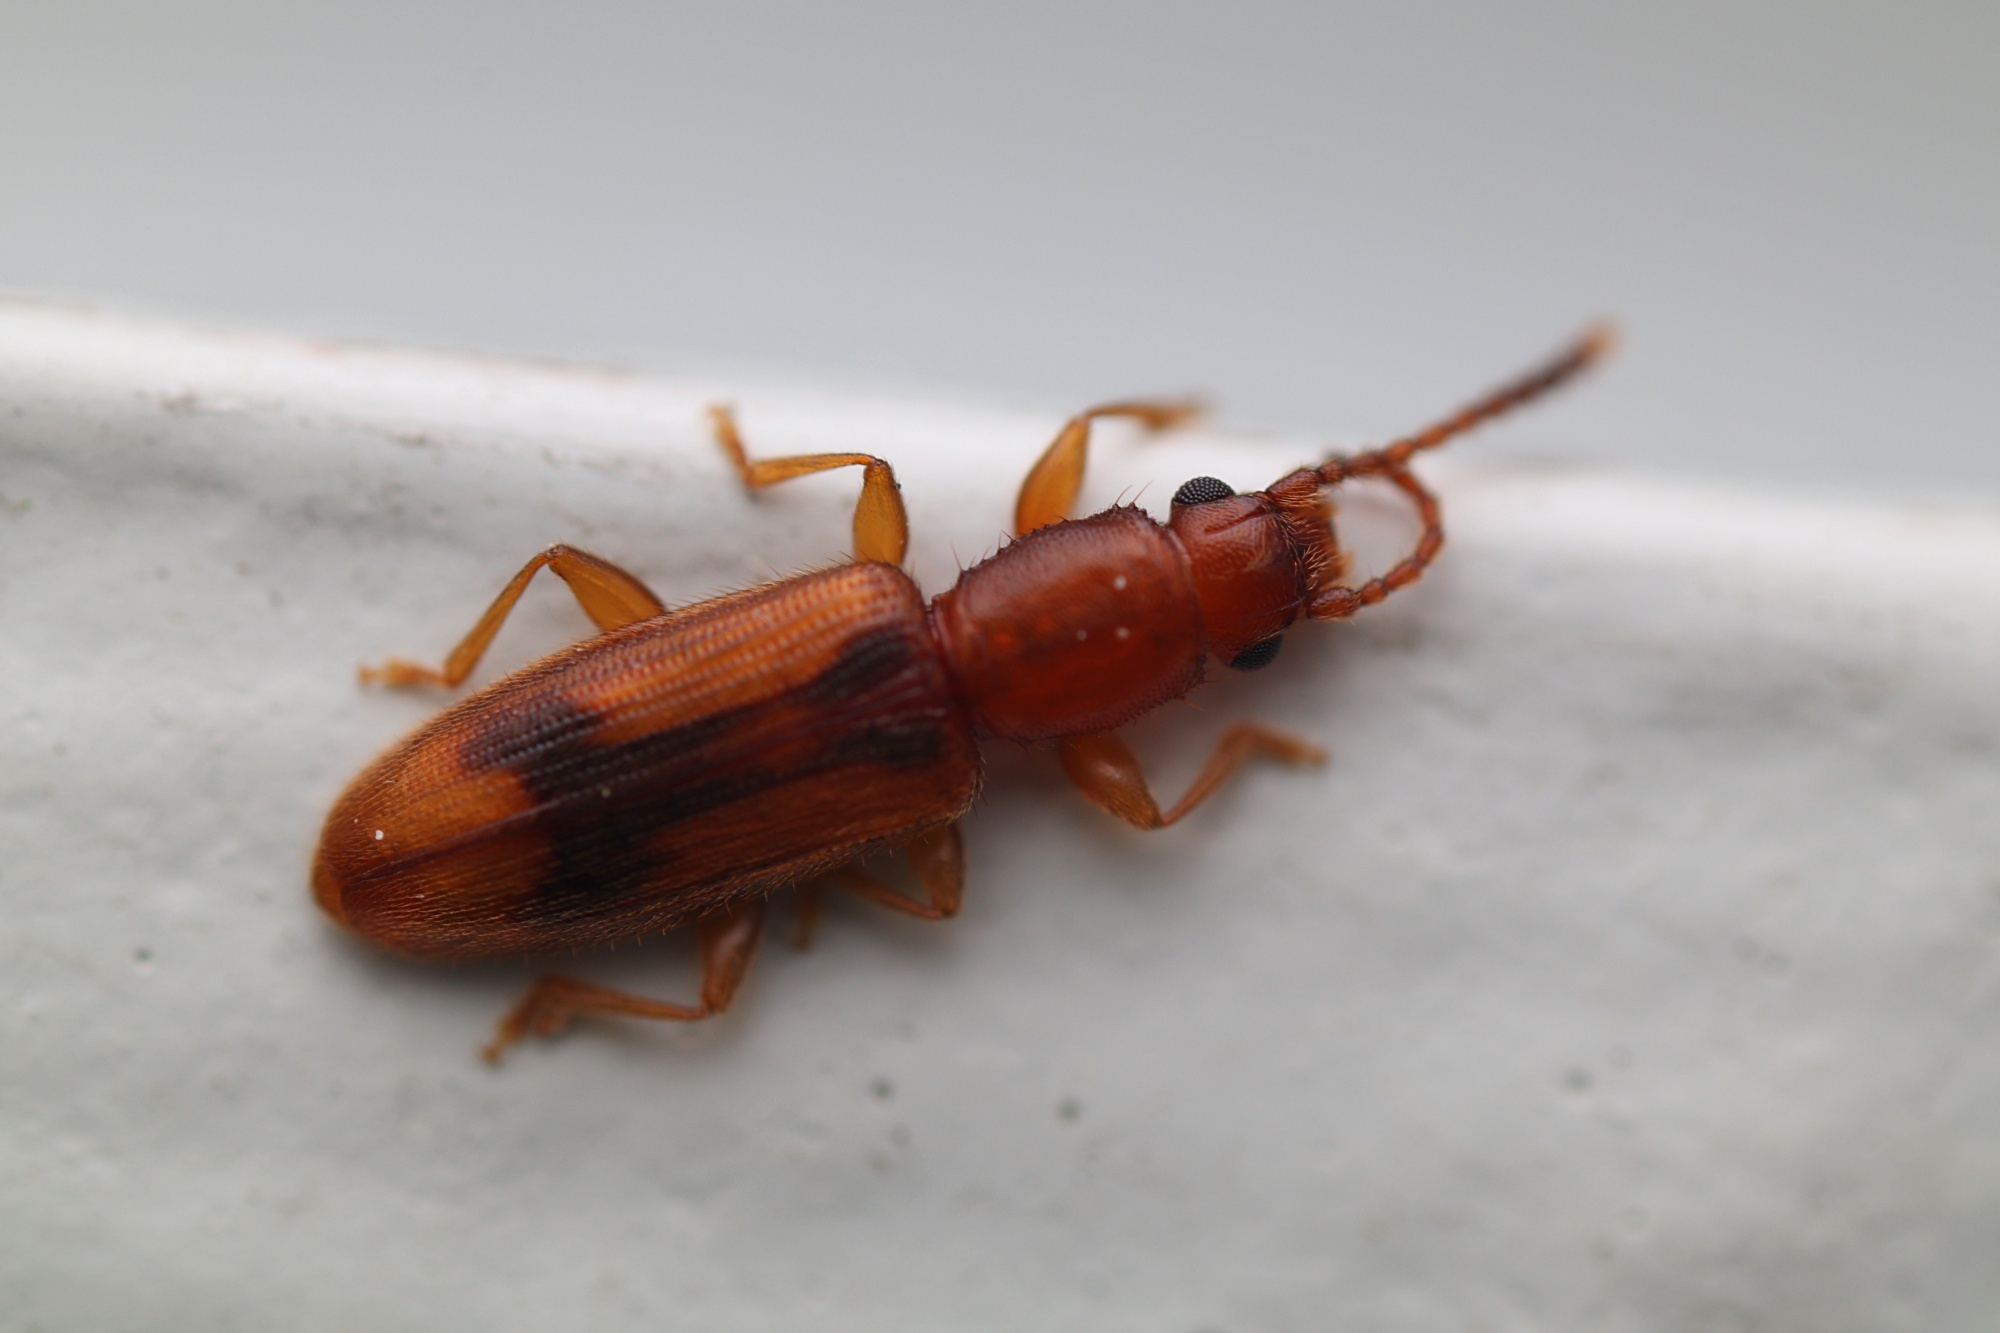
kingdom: Animalia
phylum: Arthropoda
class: Insecta
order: Coleoptera
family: Silvanidae
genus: Cryptamorpha
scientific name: Cryptamorpha desjardinsi
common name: Cryptamorpha
